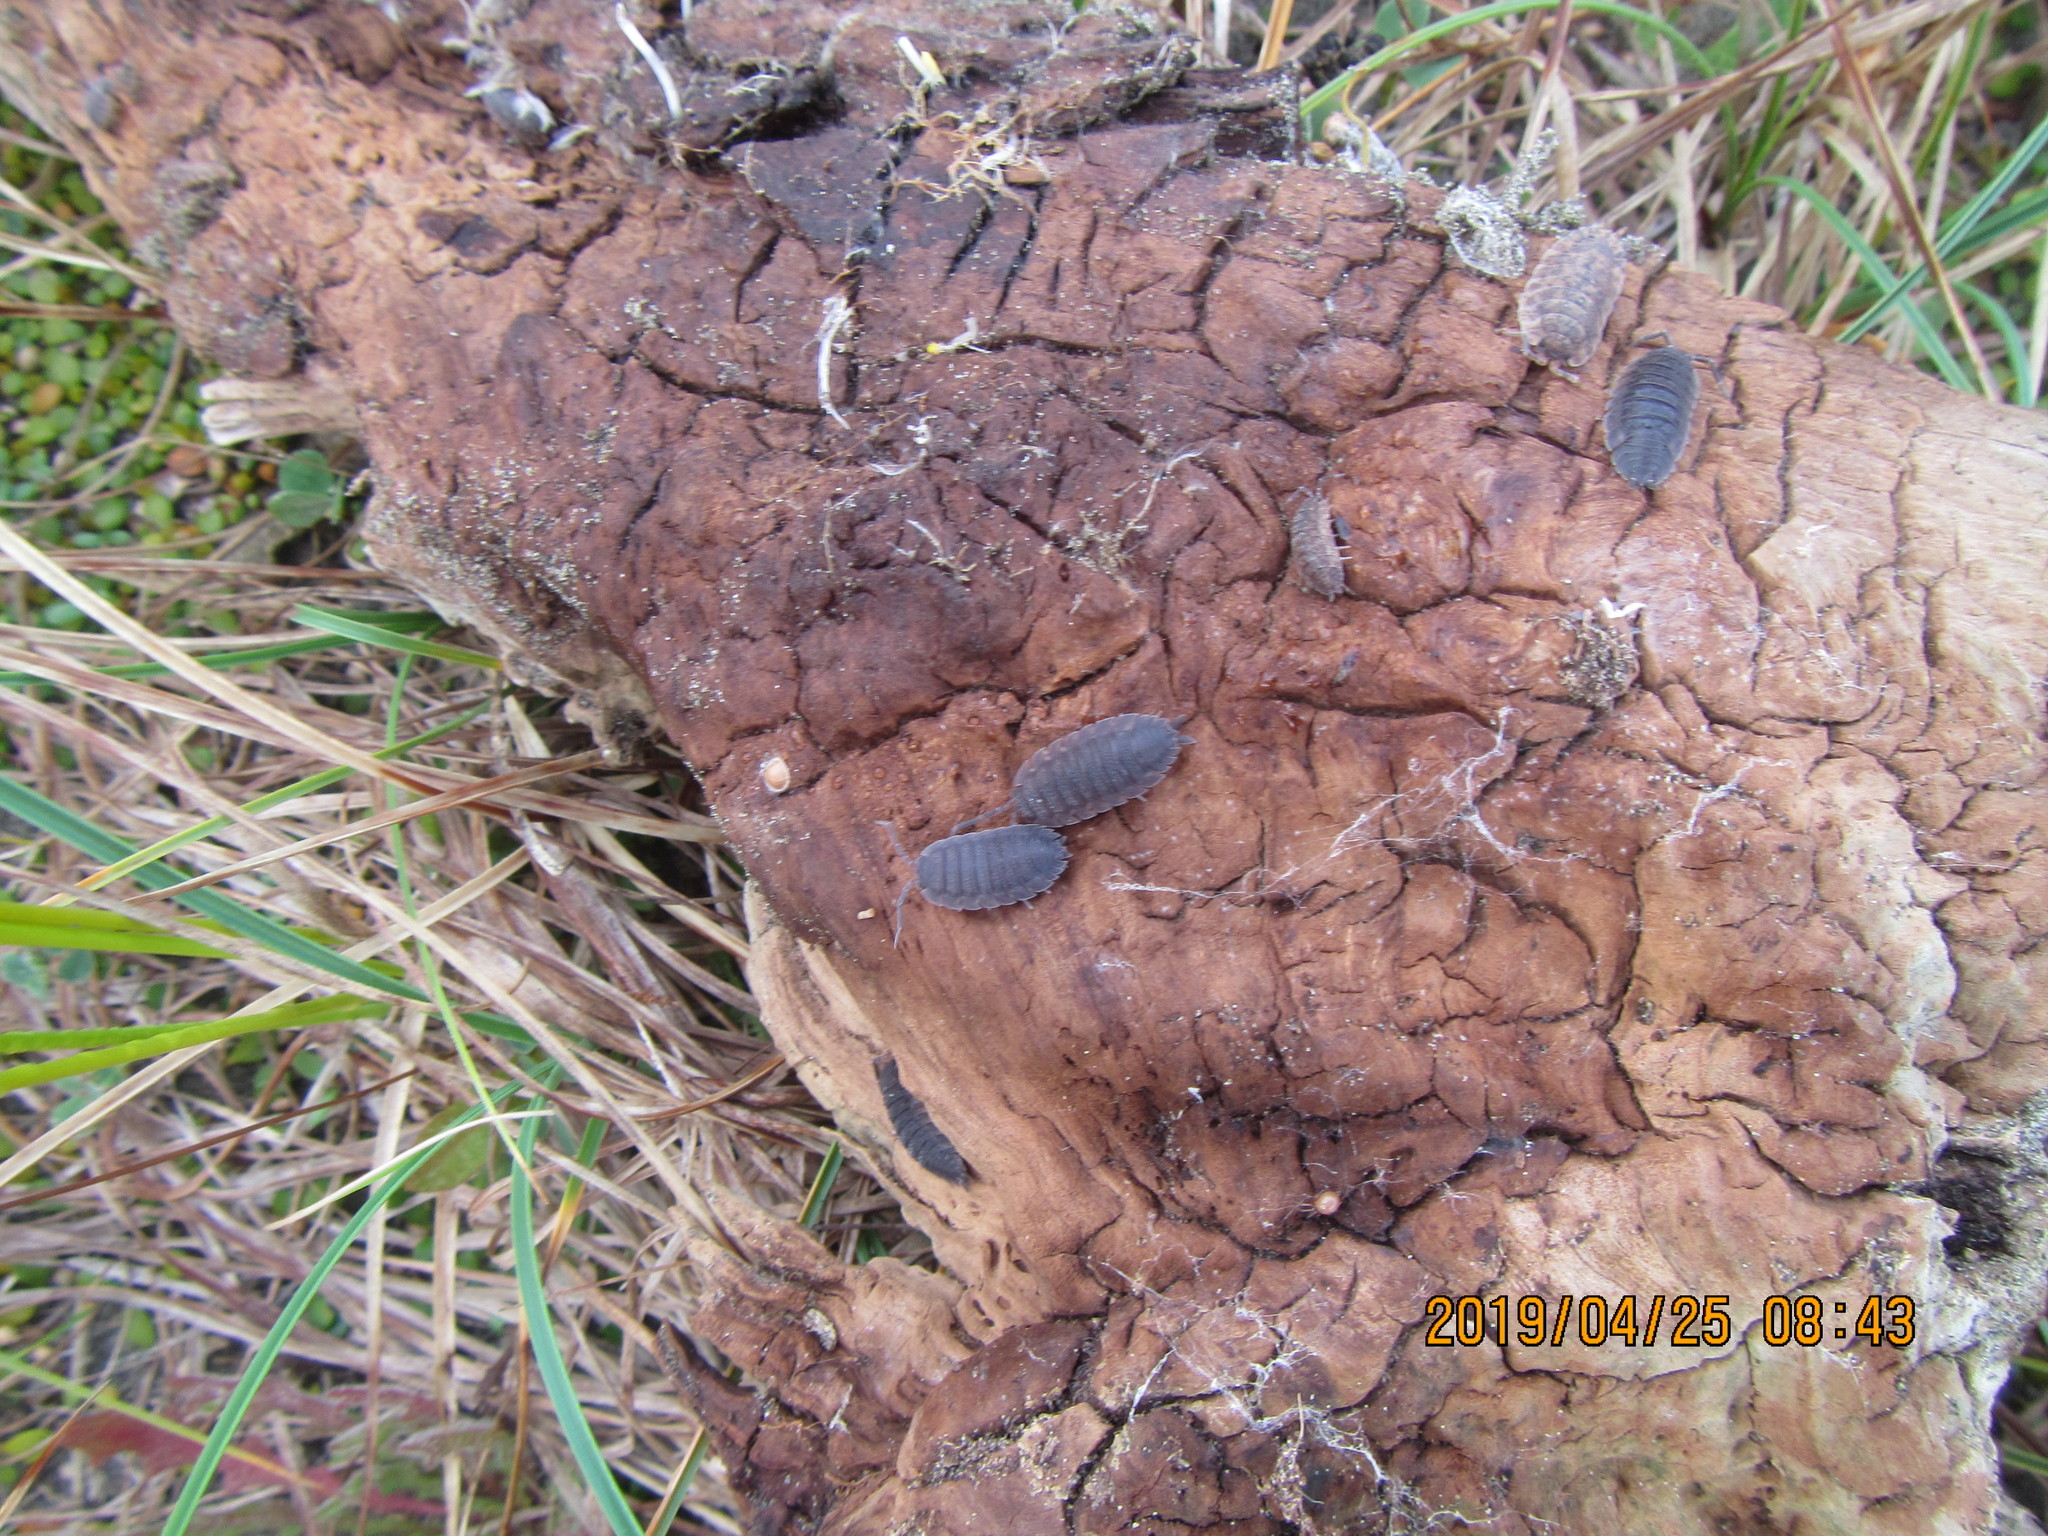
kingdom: Animalia
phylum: Arthropoda
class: Malacostraca
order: Isopoda
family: Porcellionidae
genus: Porcellio
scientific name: Porcellio scaber
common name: Common rough woodlouse
